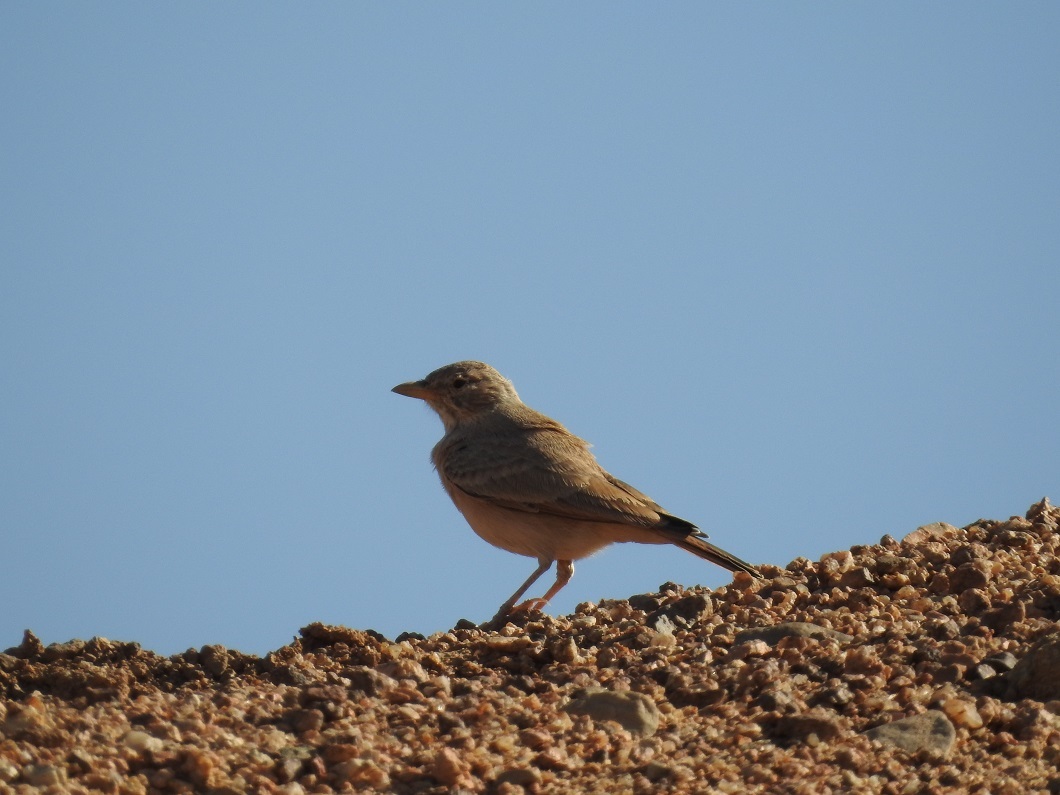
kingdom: Animalia
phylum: Chordata
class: Aves
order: Passeriformes
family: Alaudidae
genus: Ammomanes
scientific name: Ammomanes deserti
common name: Desert lark
